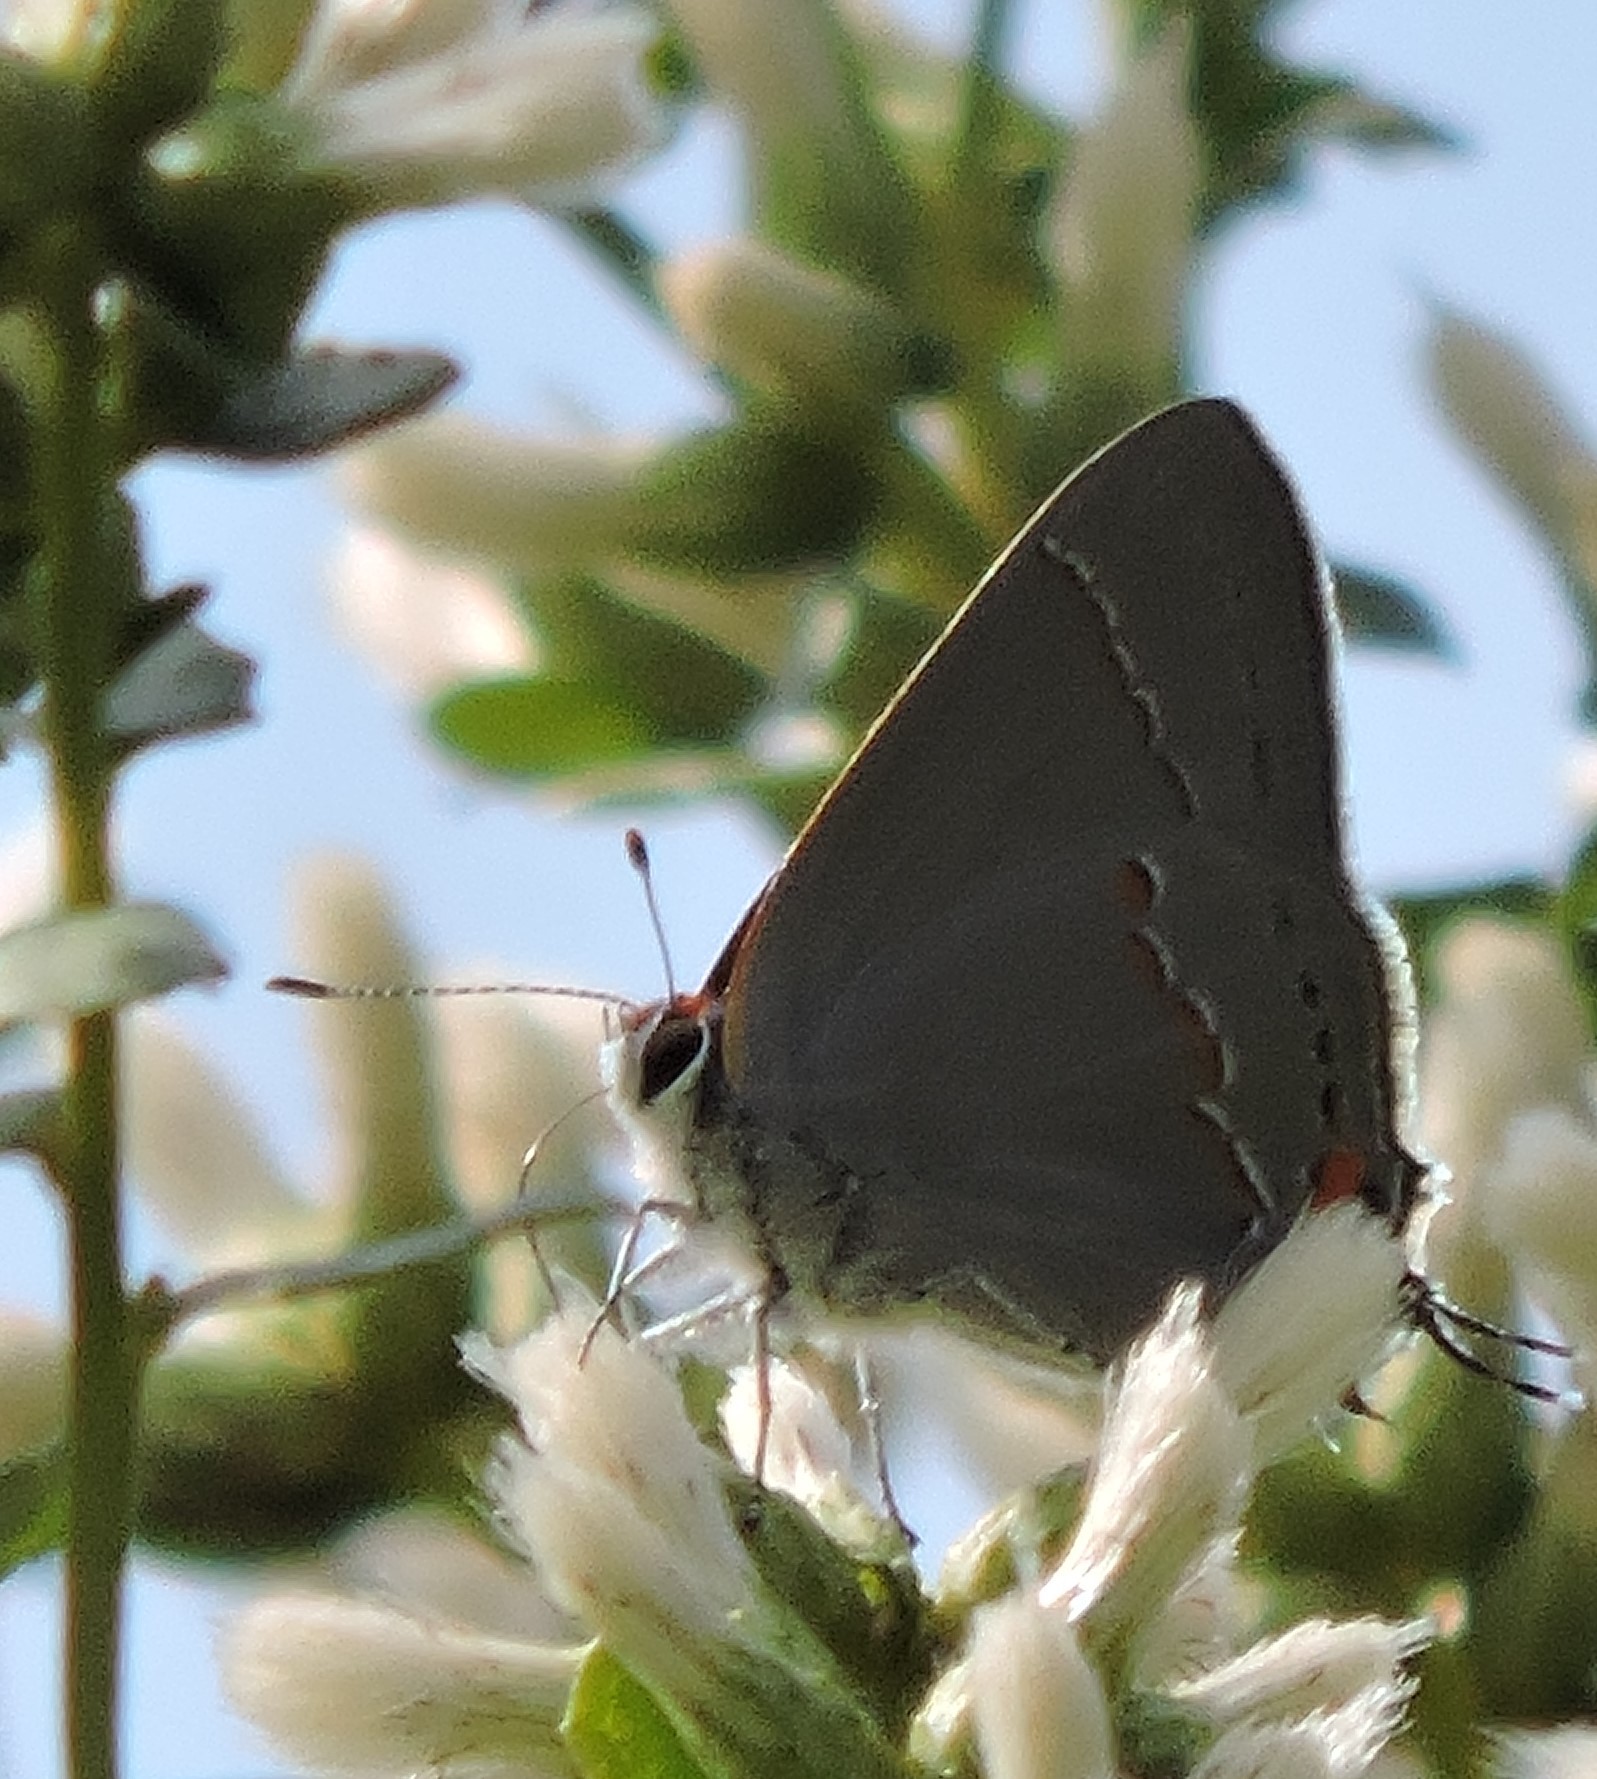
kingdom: Animalia
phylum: Arthropoda
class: Insecta
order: Lepidoptera
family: Lycaenidae
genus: Strymon
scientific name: Strymon melinus
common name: Gray hairstreak
